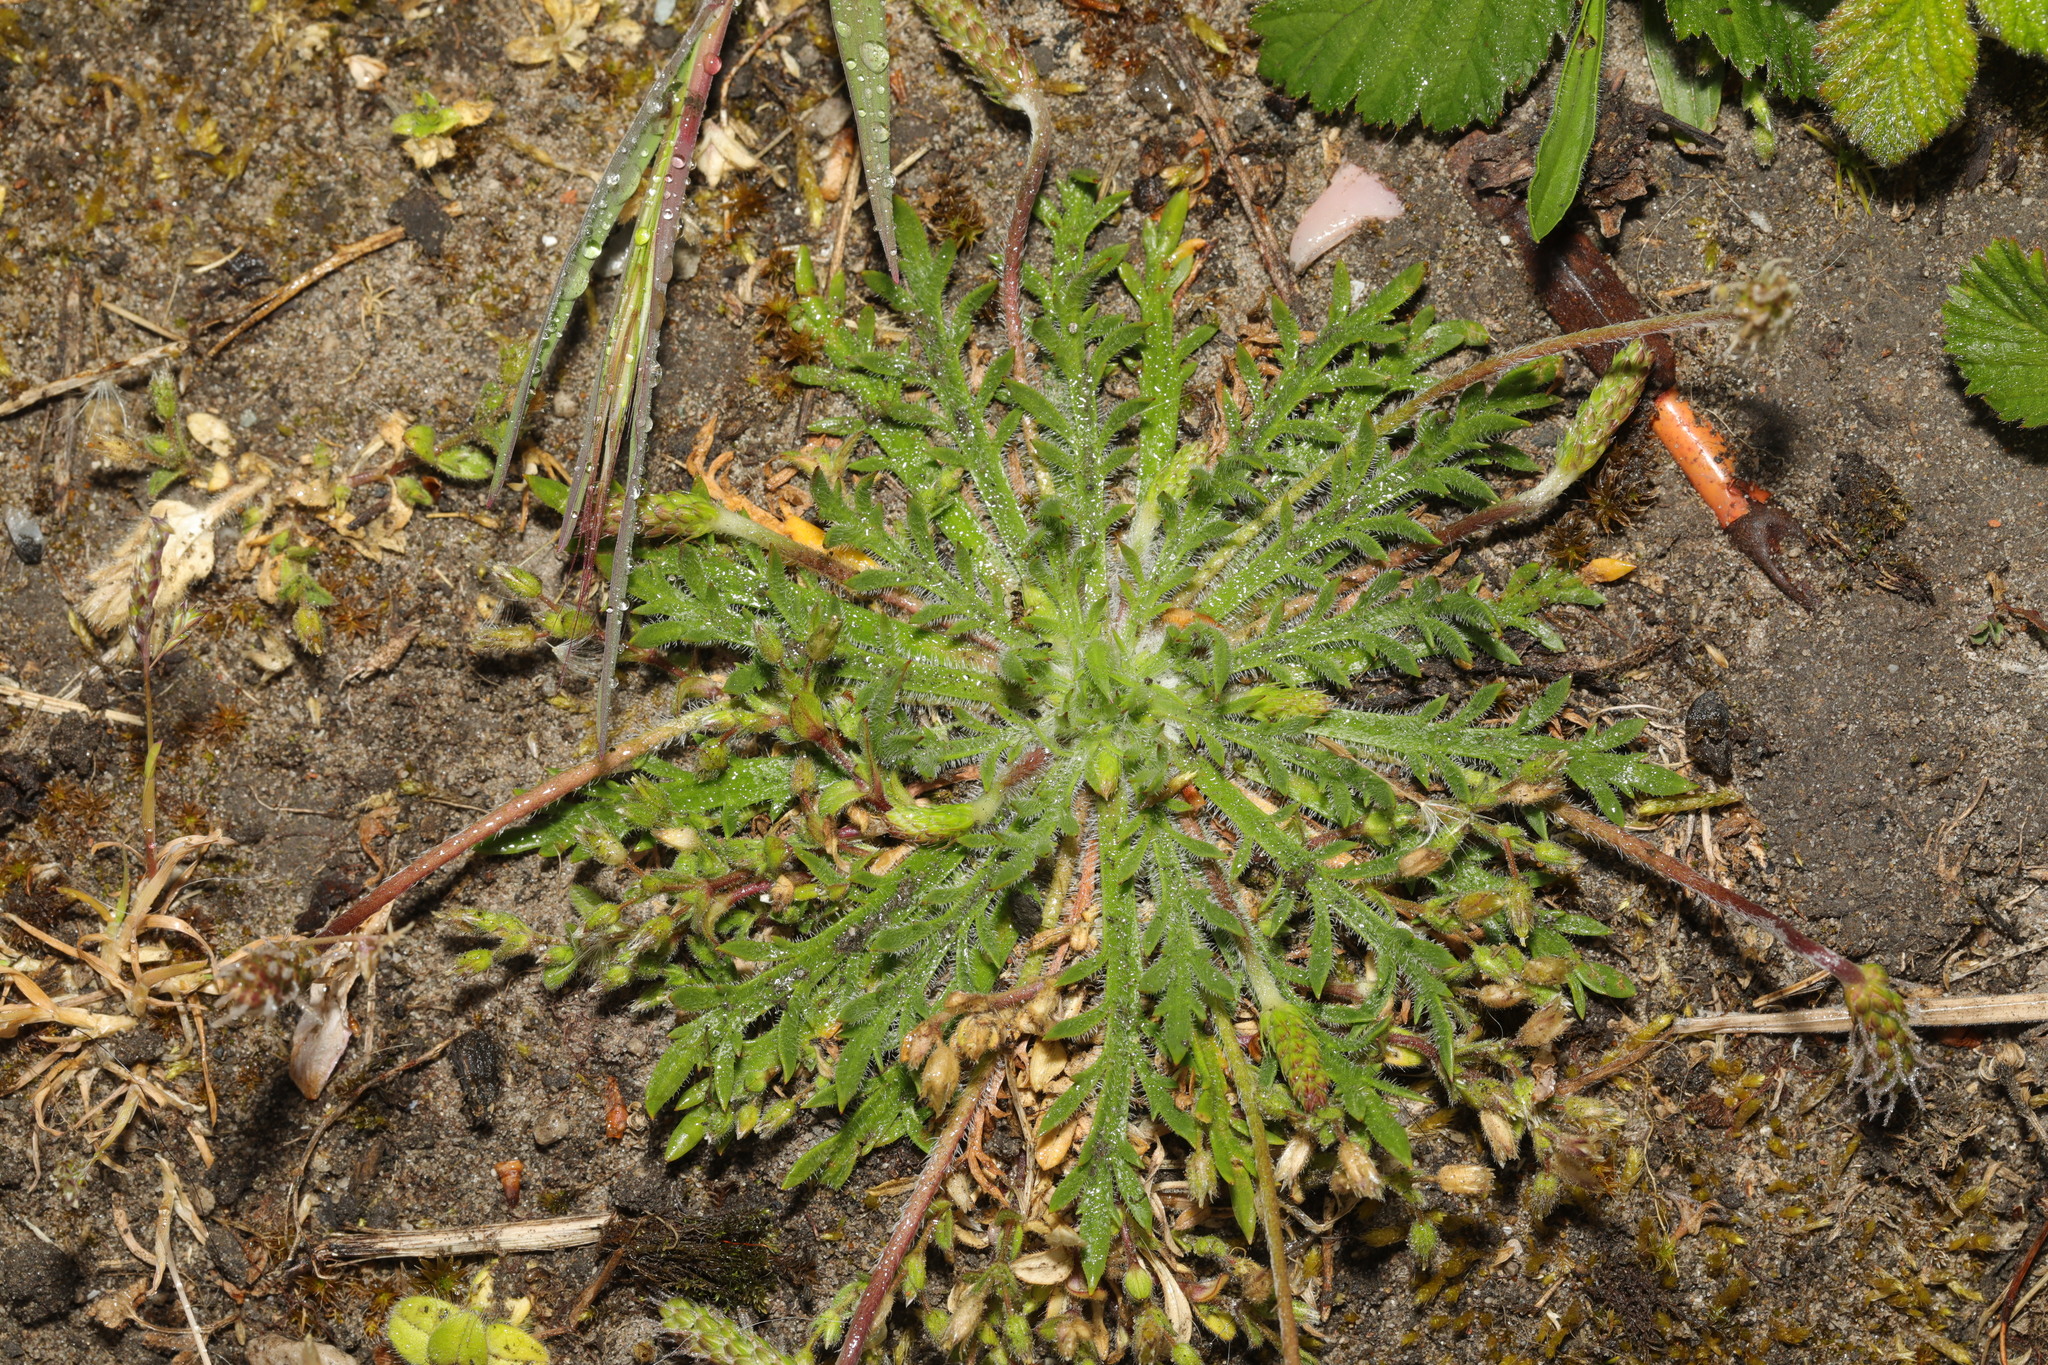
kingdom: Plantae
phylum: Tracheophyta
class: Magnoliopsida
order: Lamiales
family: Plantaginaceae
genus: Plantago
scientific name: Plantago coronopus
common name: Buck's-horn plantain
